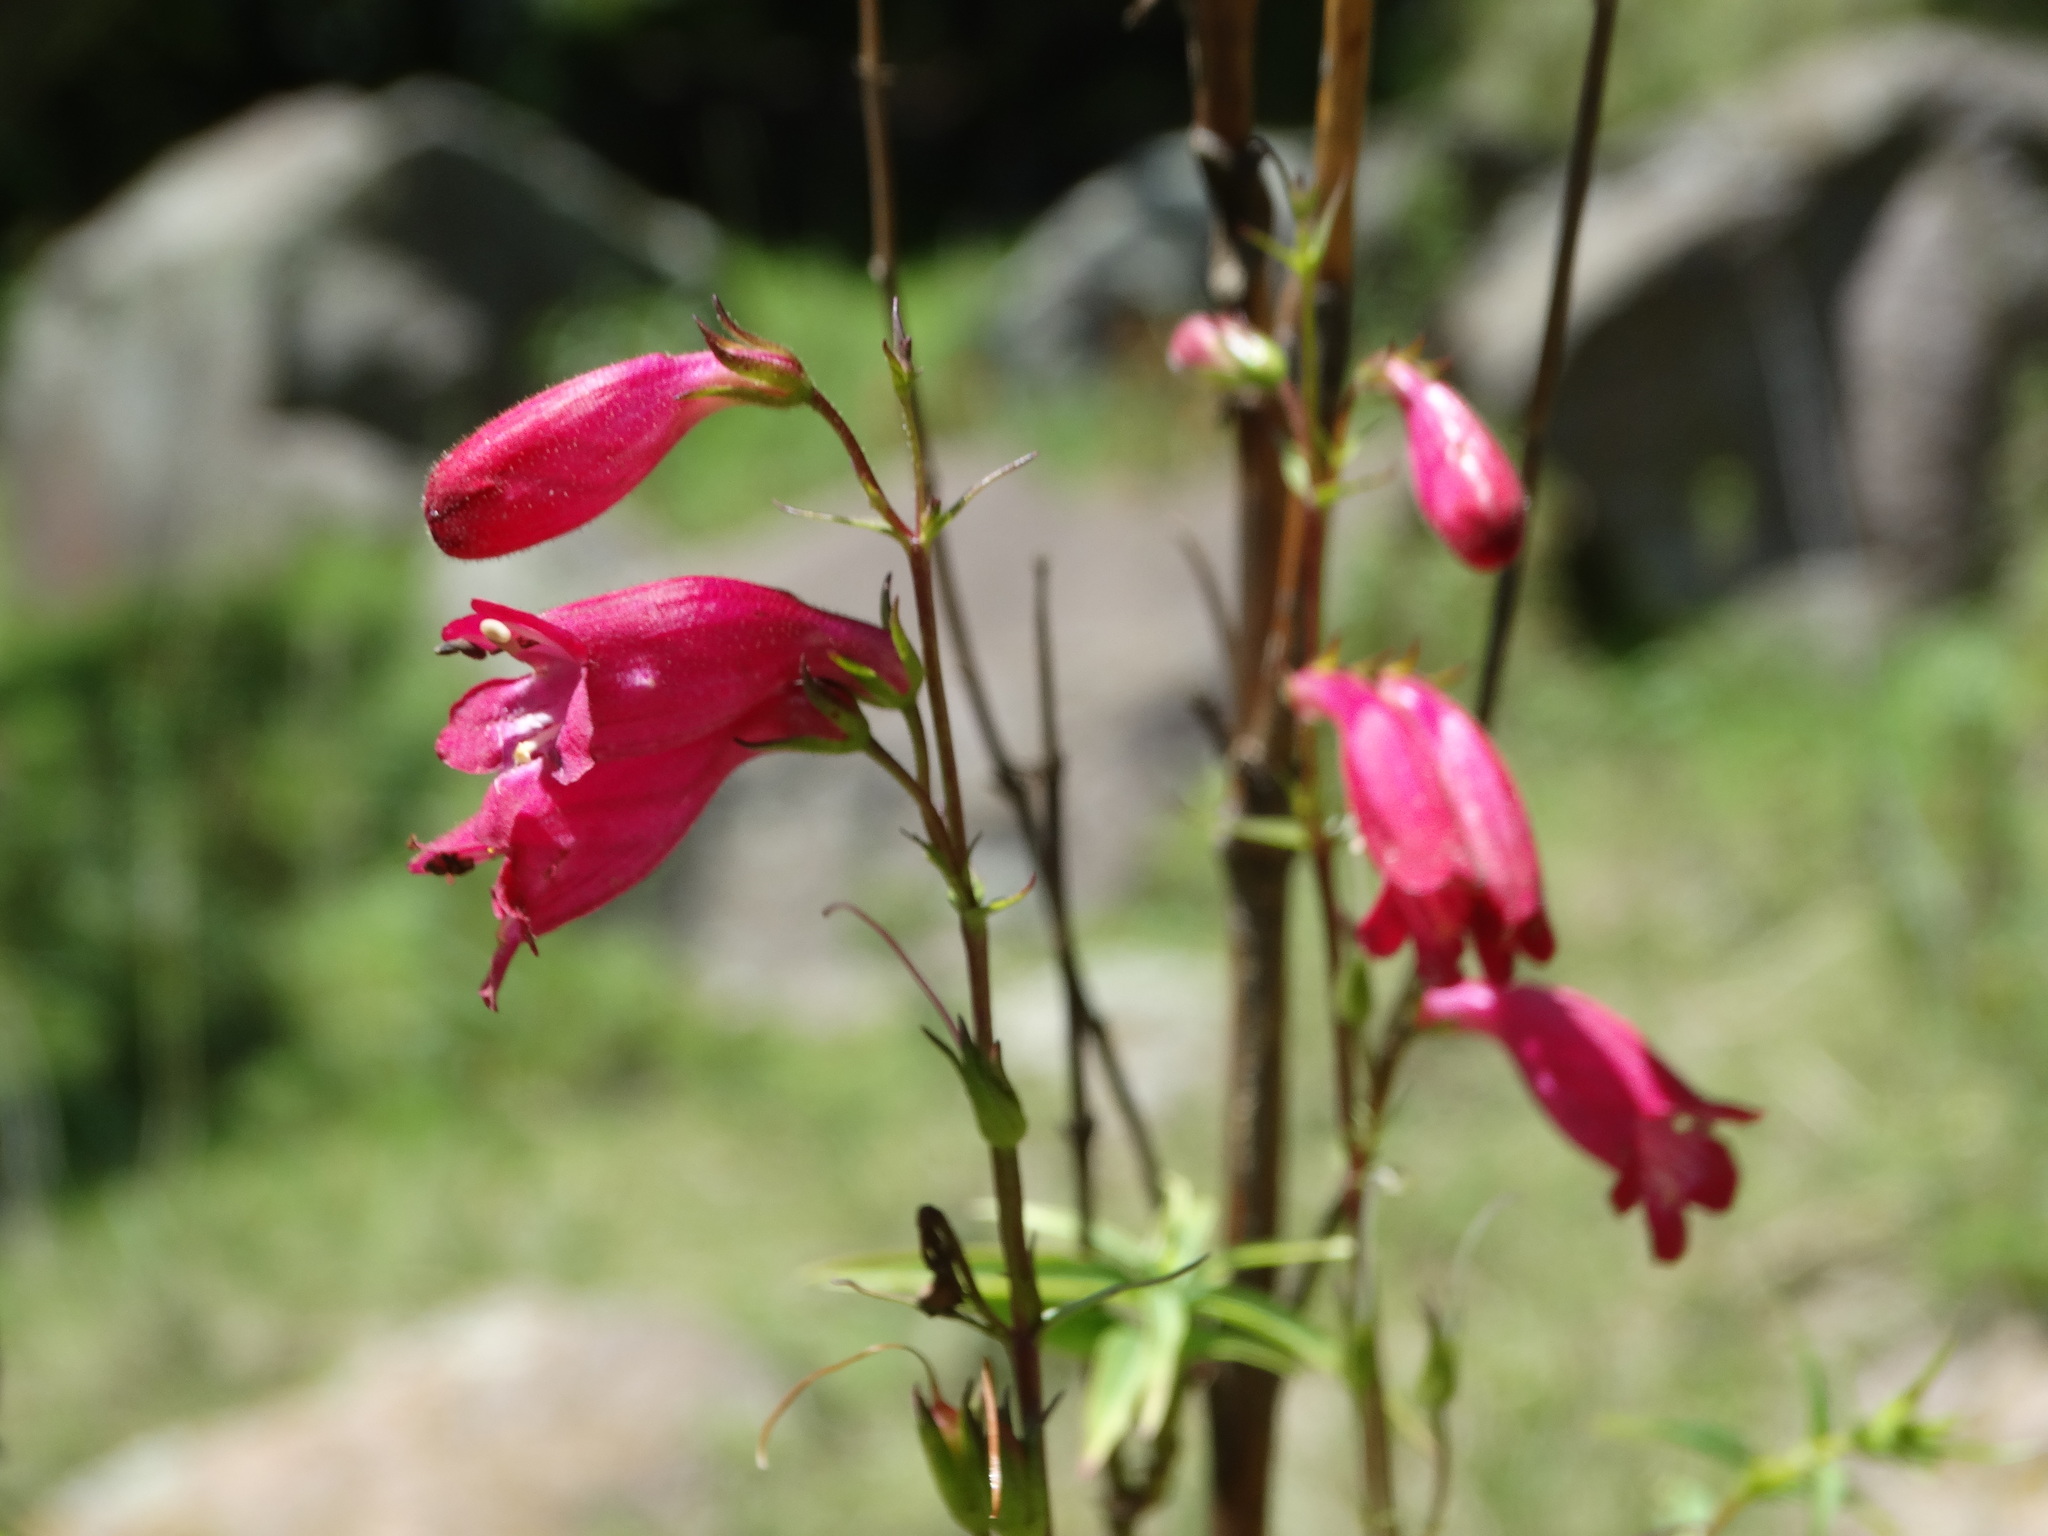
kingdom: Plantae
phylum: Tracheophyta
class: Magnoliopsida
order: Lamiales
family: Plantaginaceae
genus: Penstemon
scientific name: Penstemon roseus
